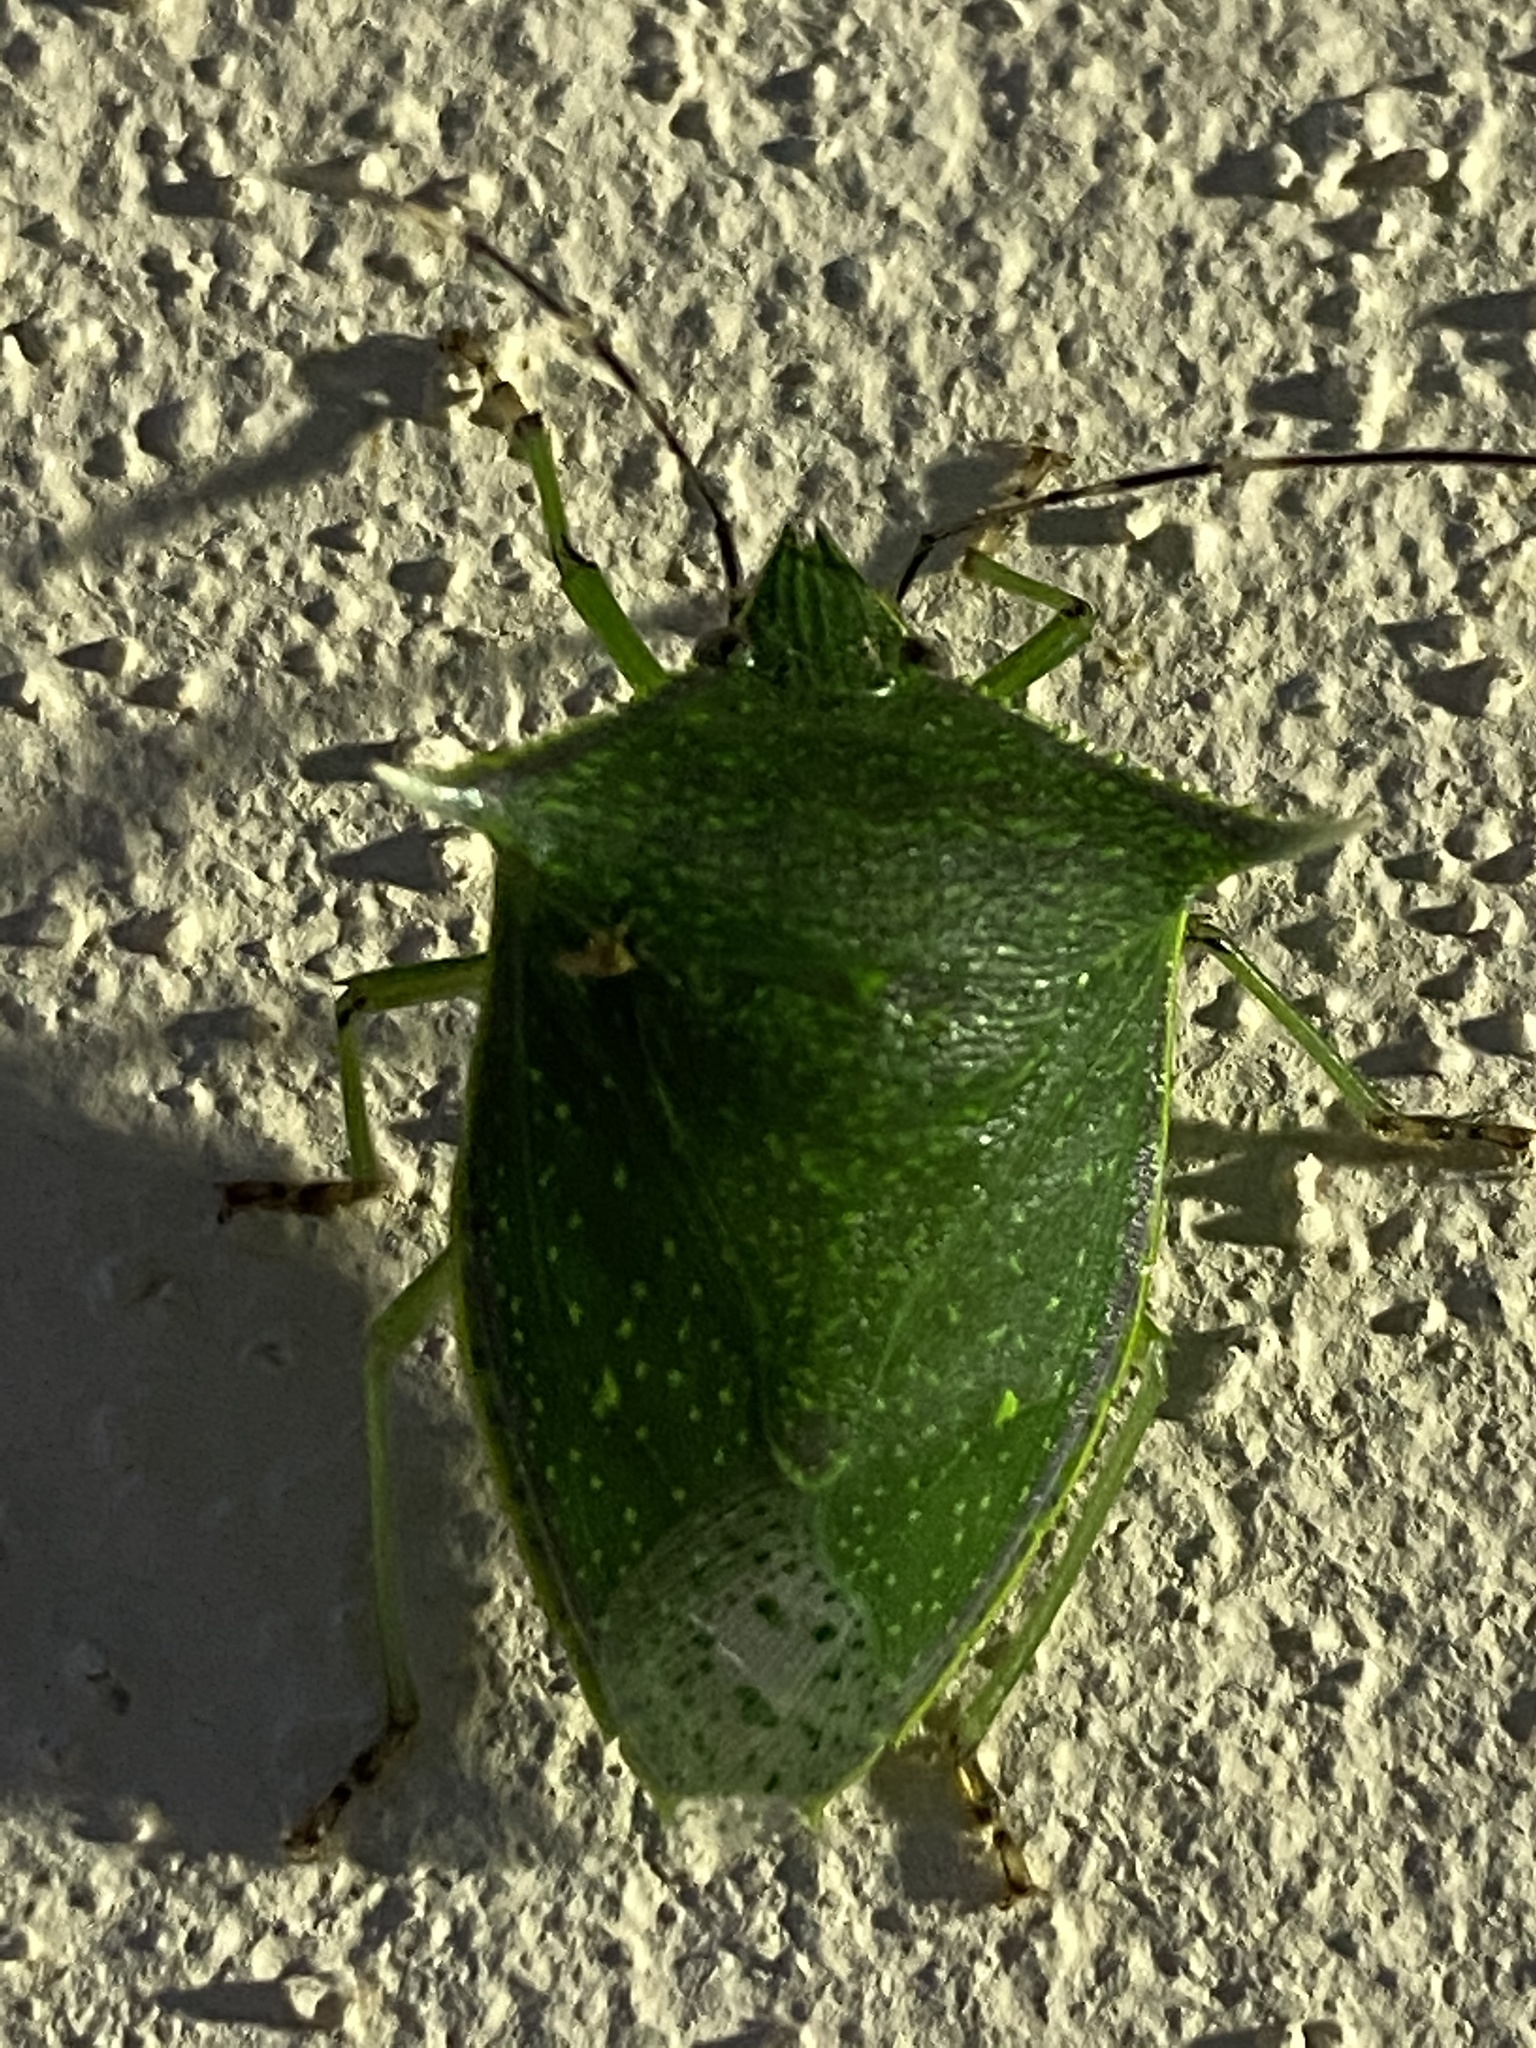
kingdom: Animalia
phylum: Arthropoda
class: Insecta
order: Hemiptera
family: Pentatomidae
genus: Loxa
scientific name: Loxa viridis
